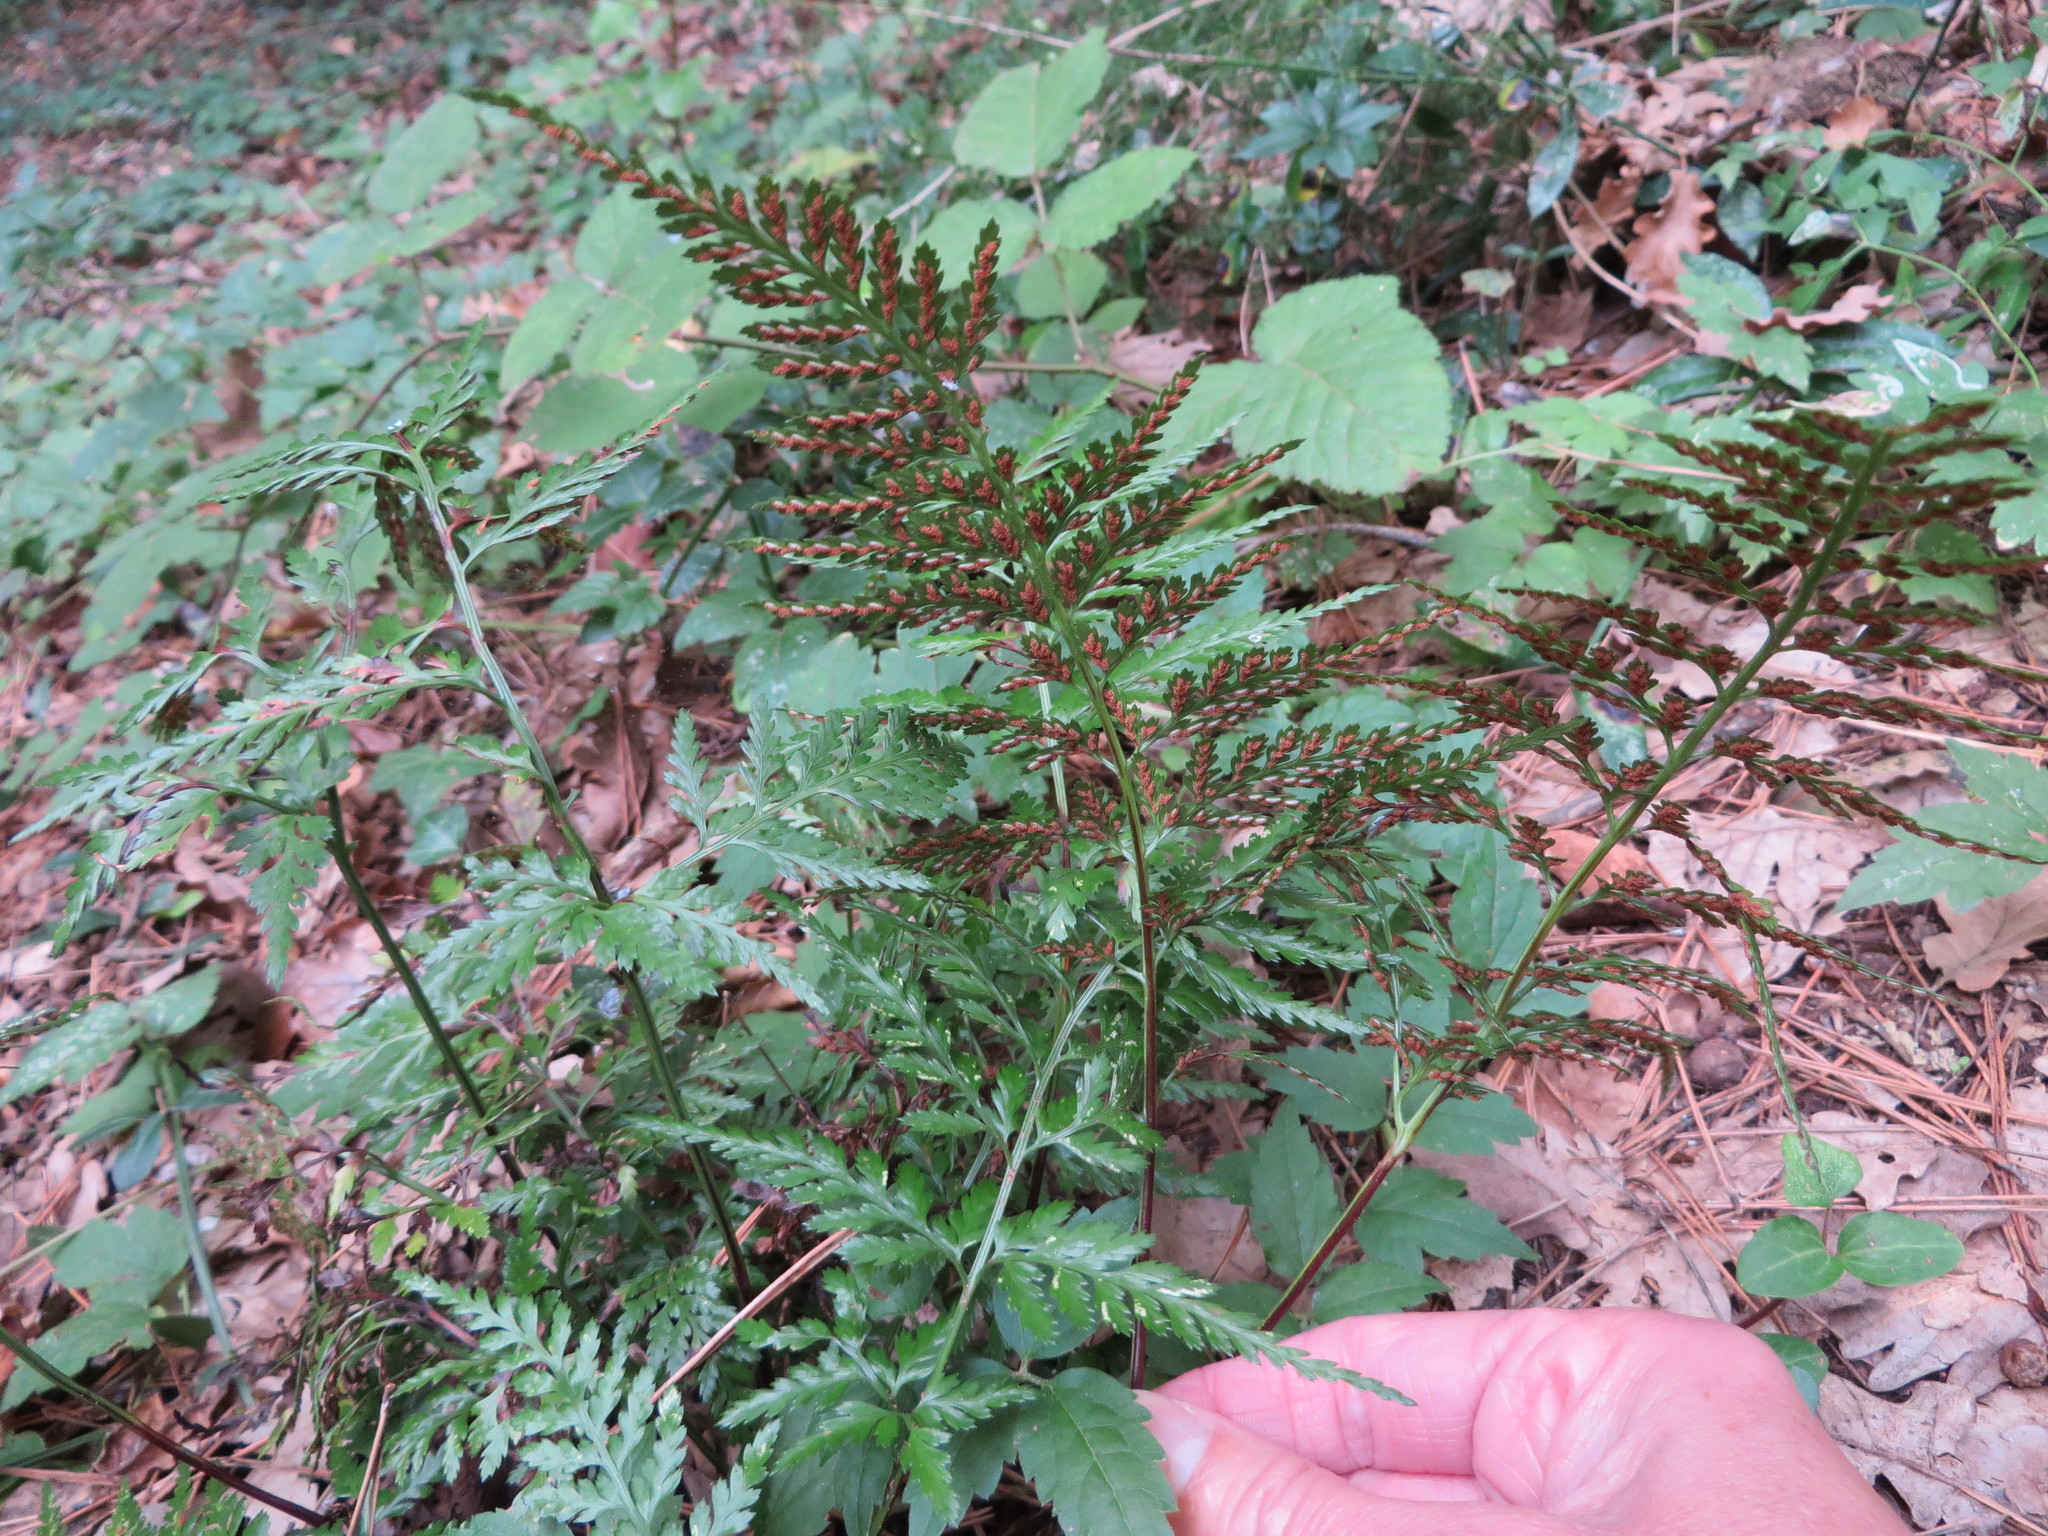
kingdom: Plantae
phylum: Tracheophyta
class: Polypodiopsida
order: Polypodiales
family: Aspleniaceae
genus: Asplenium
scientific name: Asplenium onopteris
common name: Irish spleenwort
